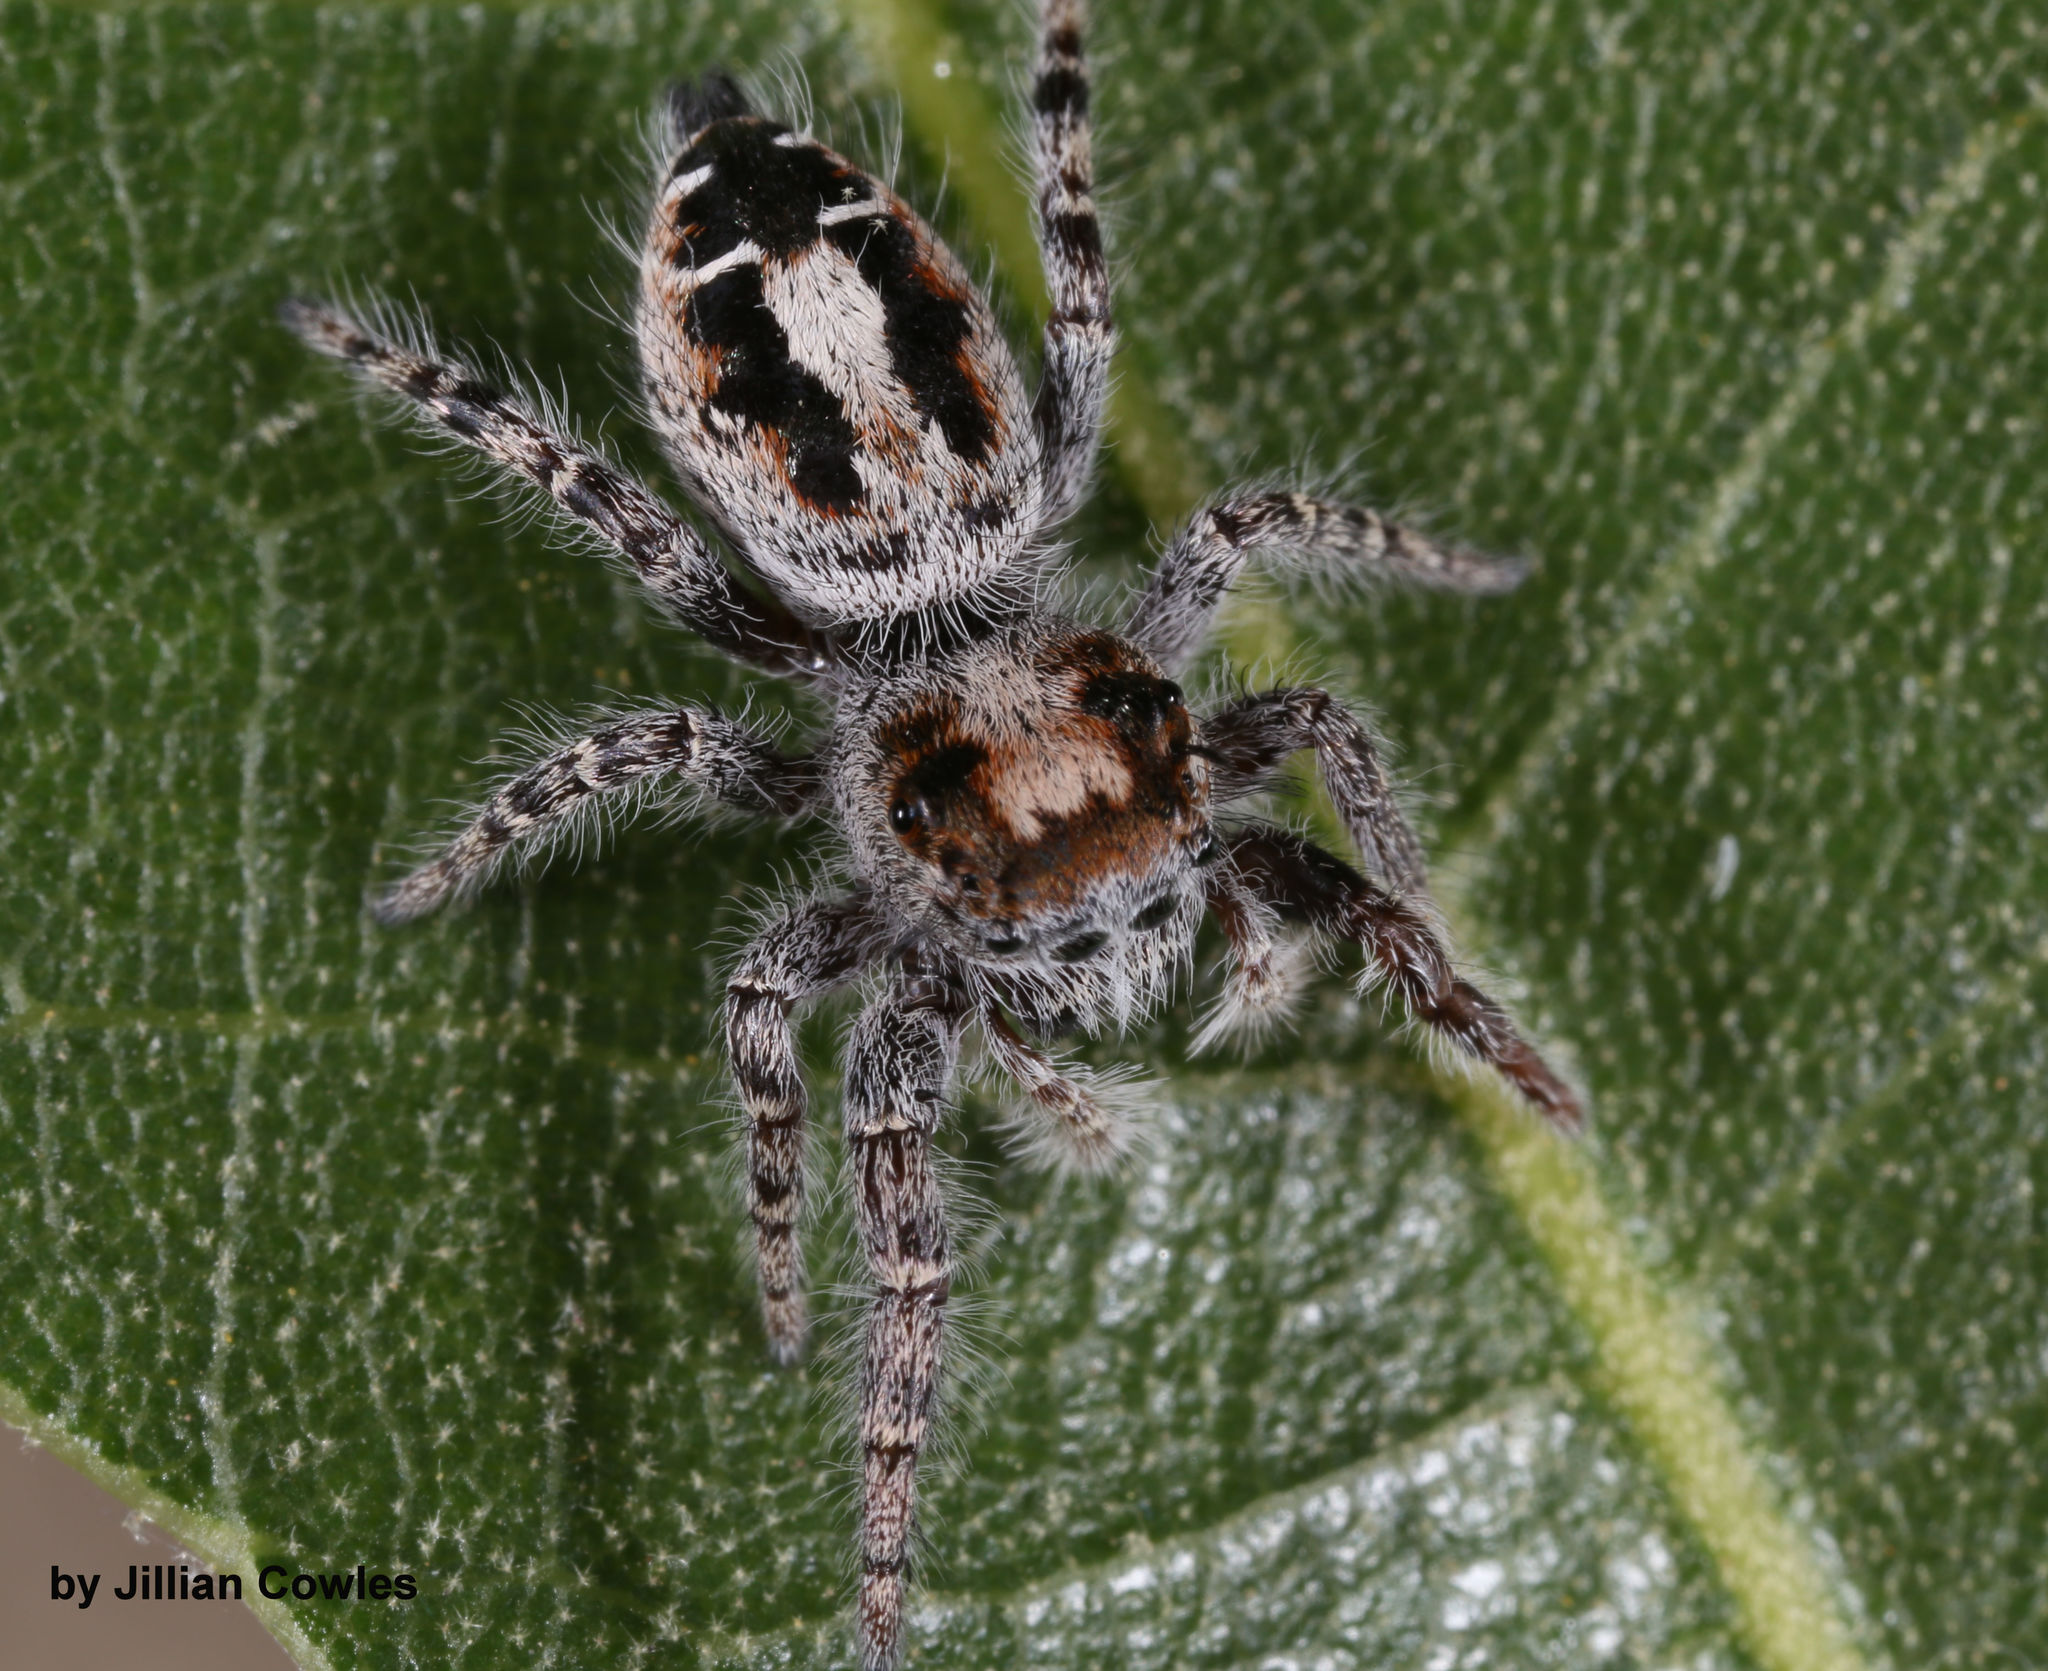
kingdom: Animalia
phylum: Arthropoda
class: Arachnida
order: Araneae
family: Salticidae
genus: Phidippus
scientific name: Phidippus comatus
